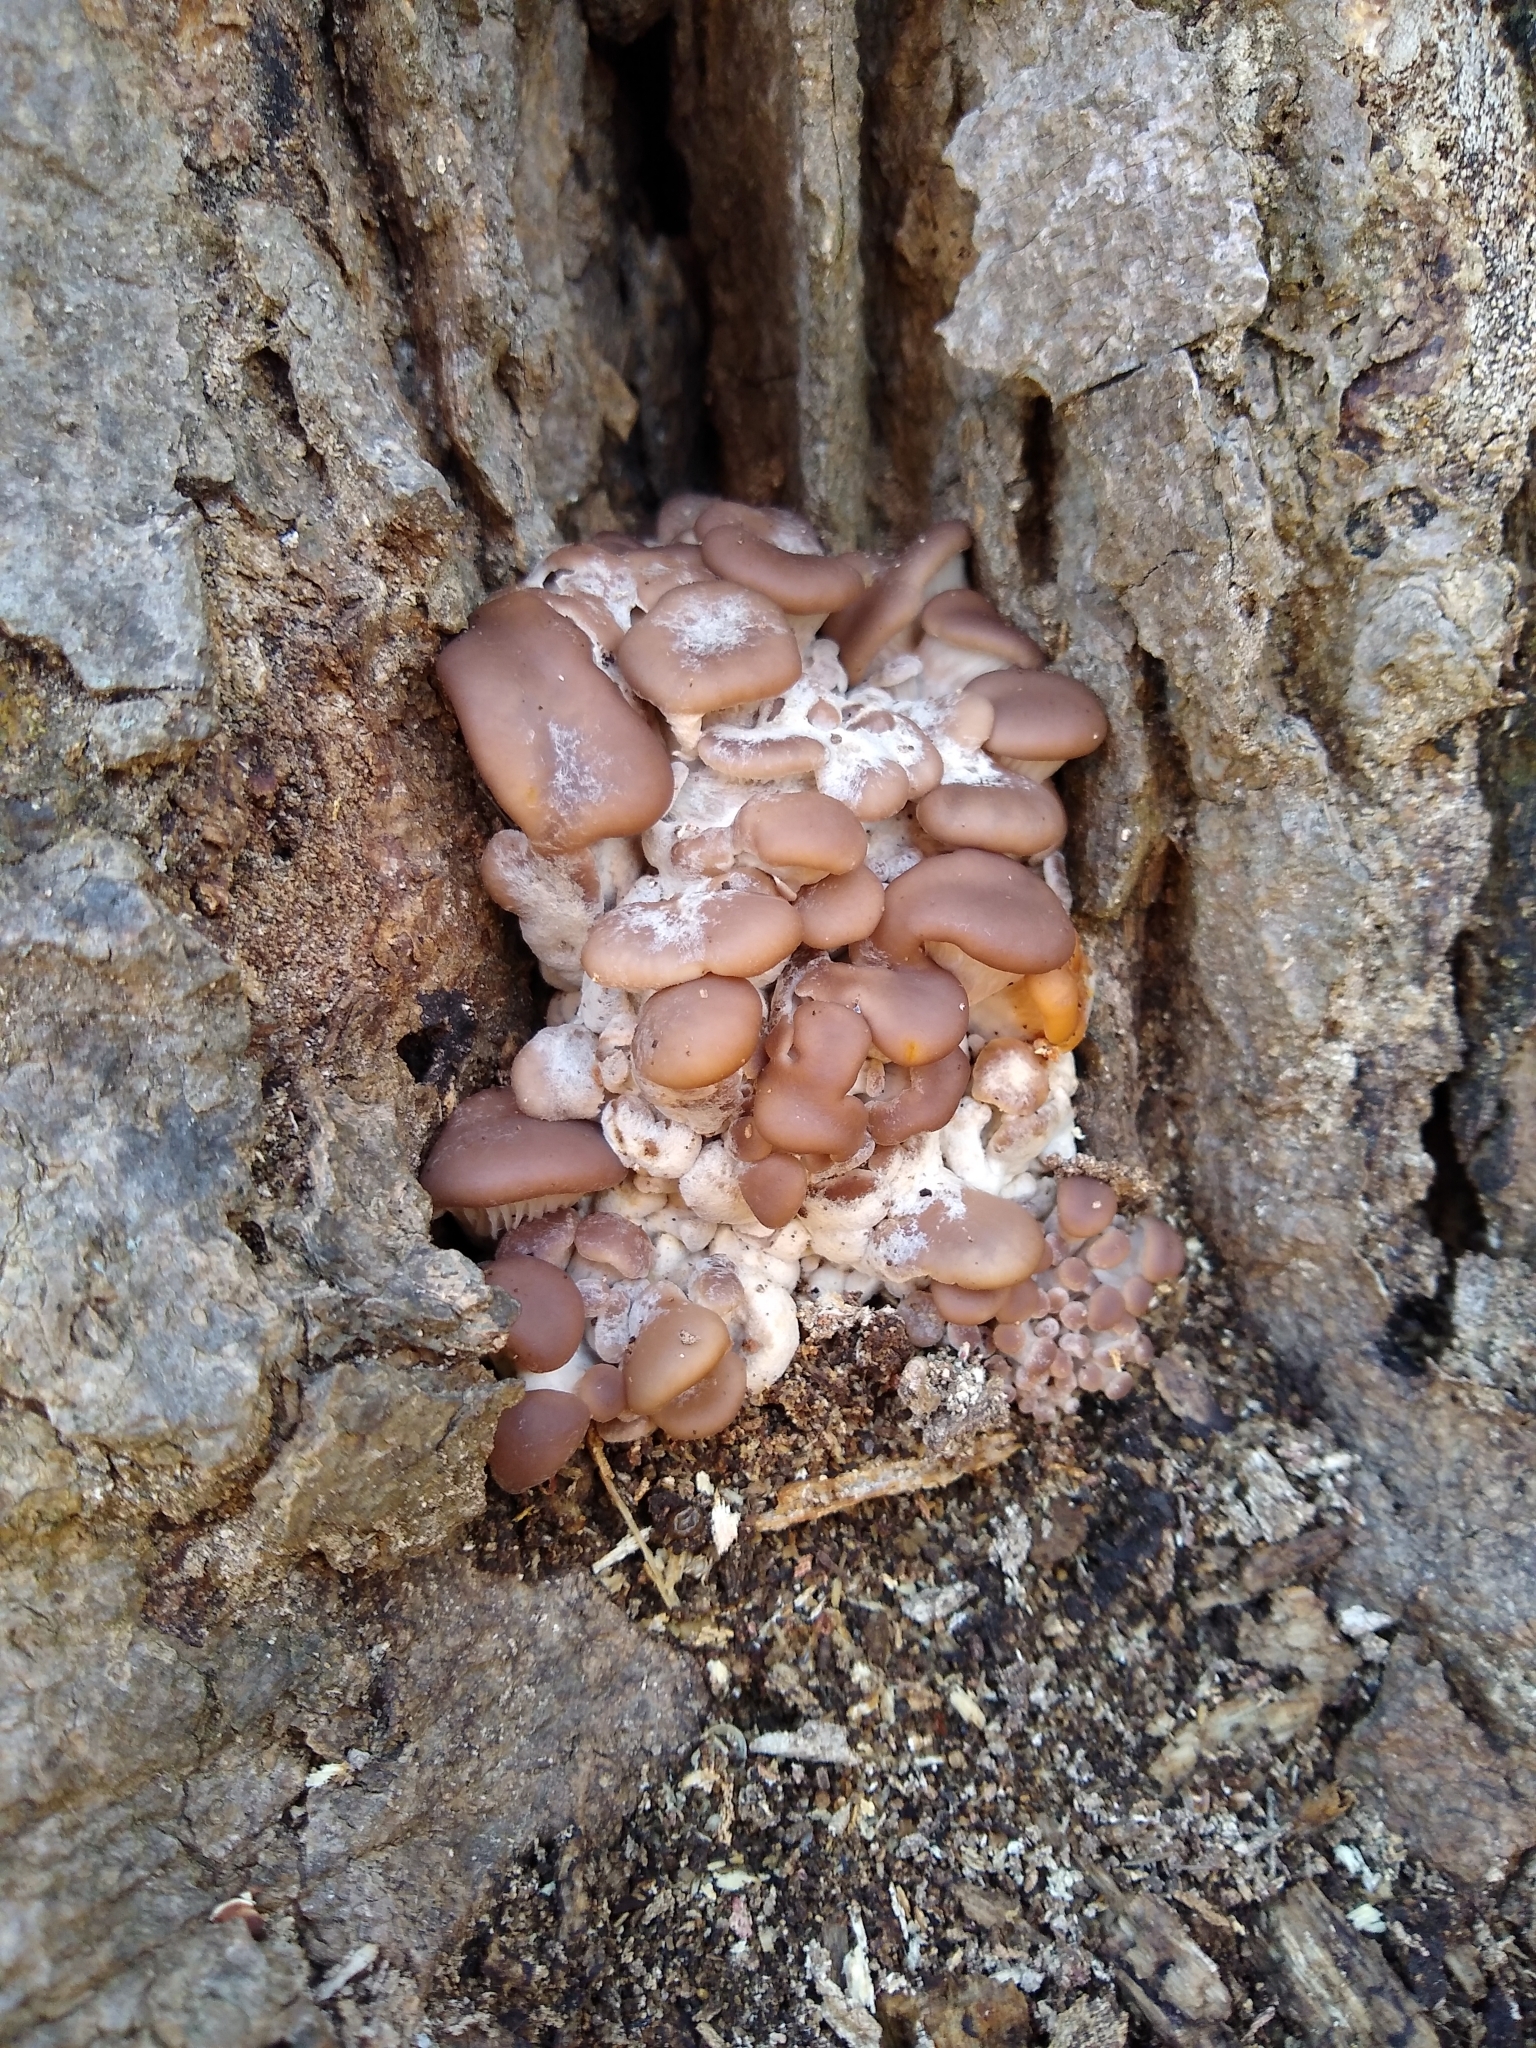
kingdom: Fungi
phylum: Basidiomycota
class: Agaricomycetes
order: Agaricales
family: Pleurotaceae
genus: Pleurotus
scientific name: Pleurotus ostreatus
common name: Oyster mushroom
